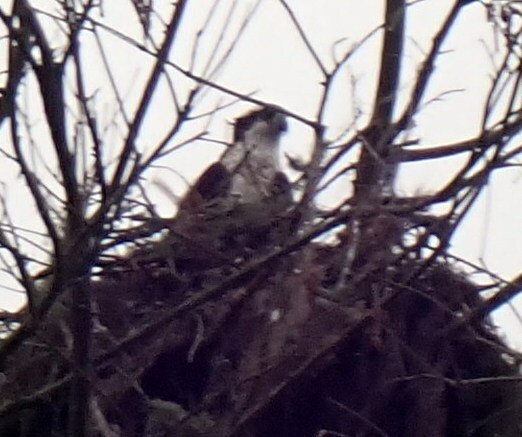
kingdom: Animalia
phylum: Chordata
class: Aves
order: Accipitriformes
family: Pandionidae
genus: Pandion
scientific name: Pandion haliaetus
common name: Osprey
